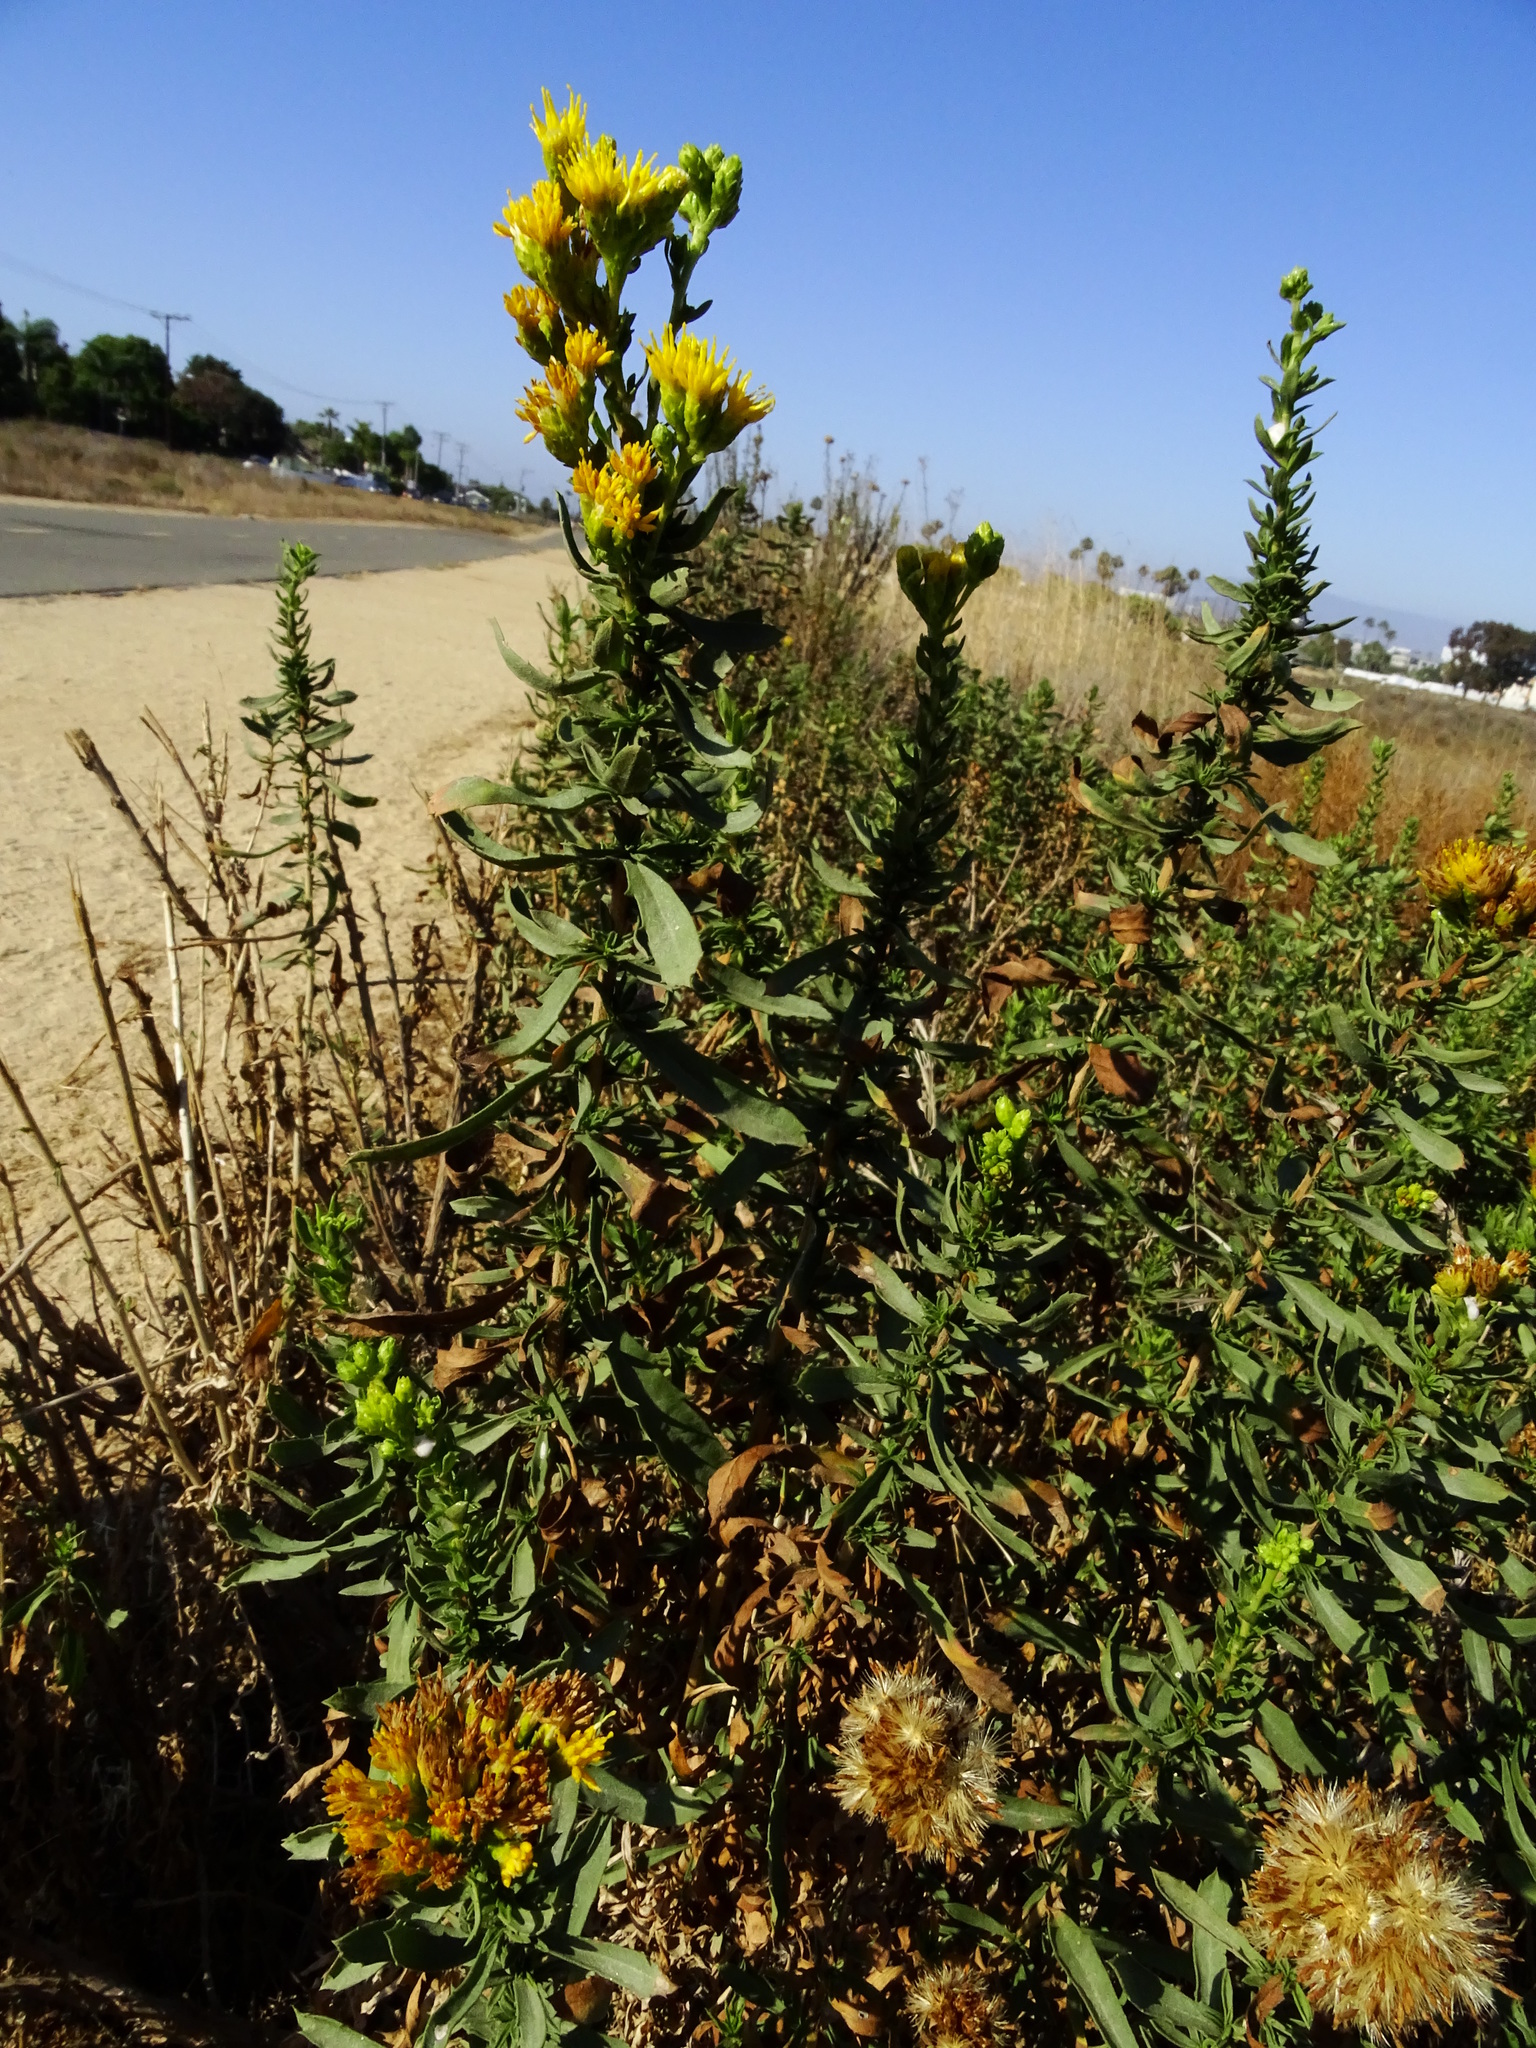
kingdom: Plantae
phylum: Tracheophyta
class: Magnoliopsida
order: Asterales
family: Asteraceae
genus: Isocoma
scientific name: Isocoma menziesii
